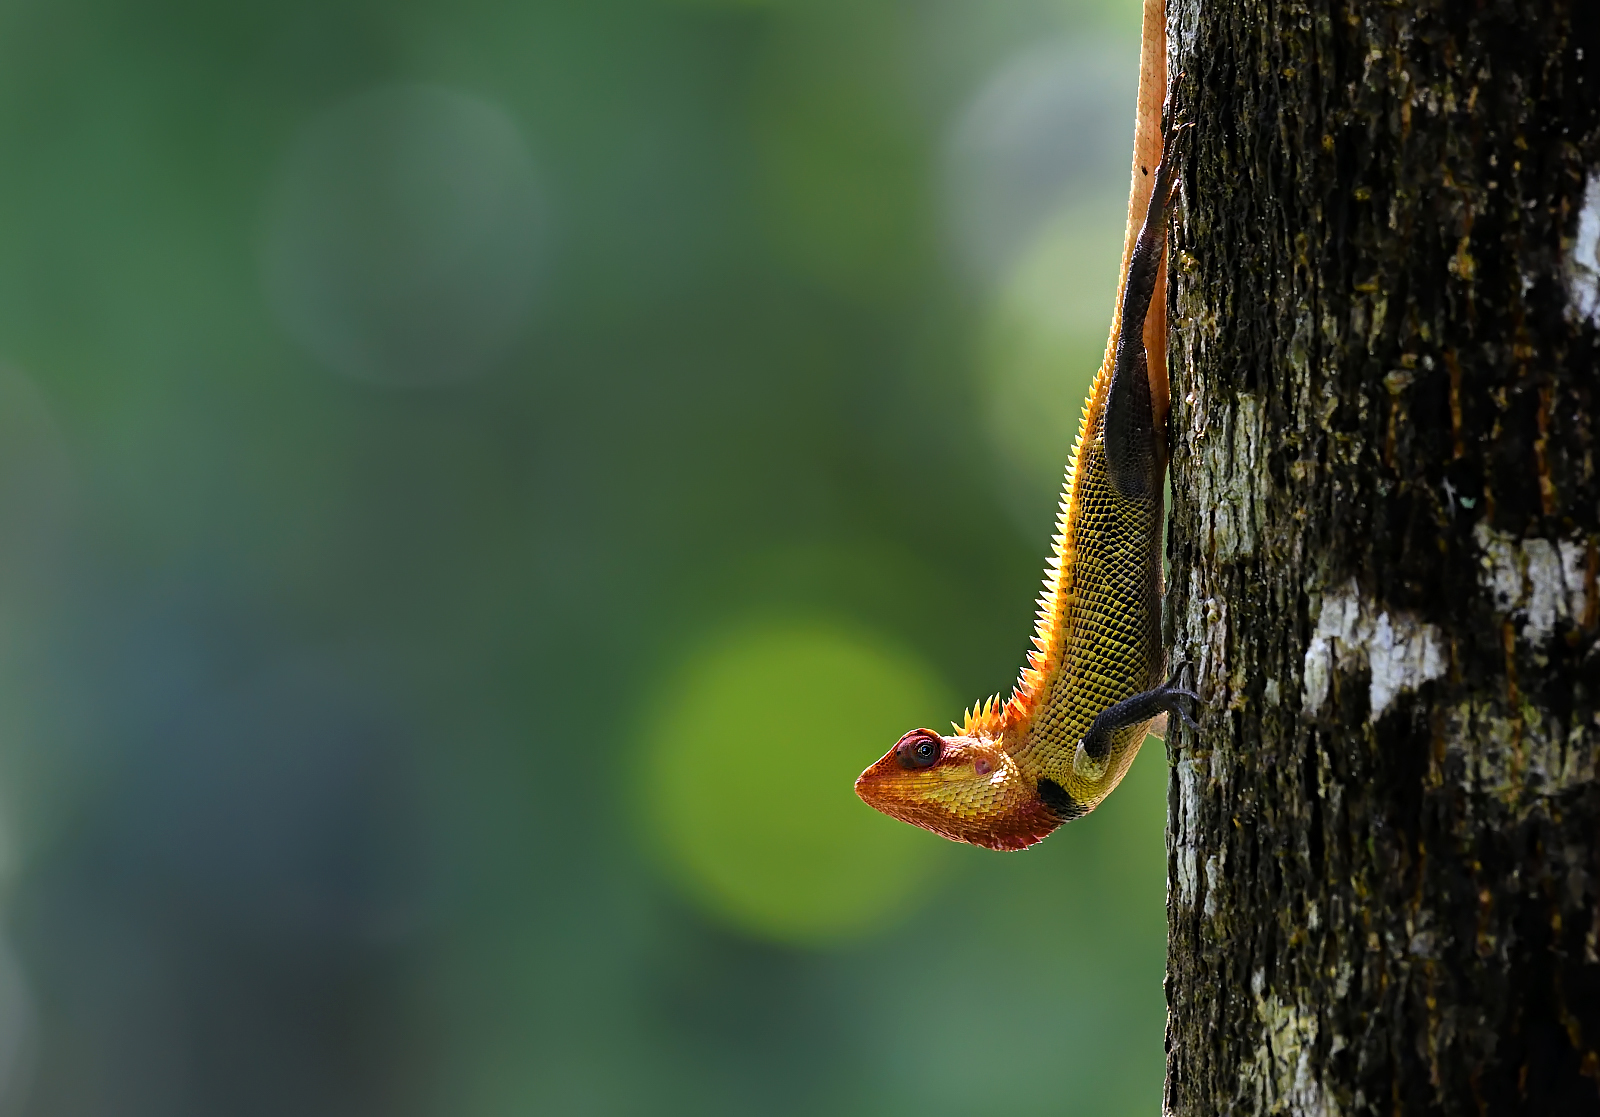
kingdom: Animalia
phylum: Chordata
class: Squamata
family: Agamidae
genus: Calotes
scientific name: Calotes versicolor
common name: Oriental garden lizard
